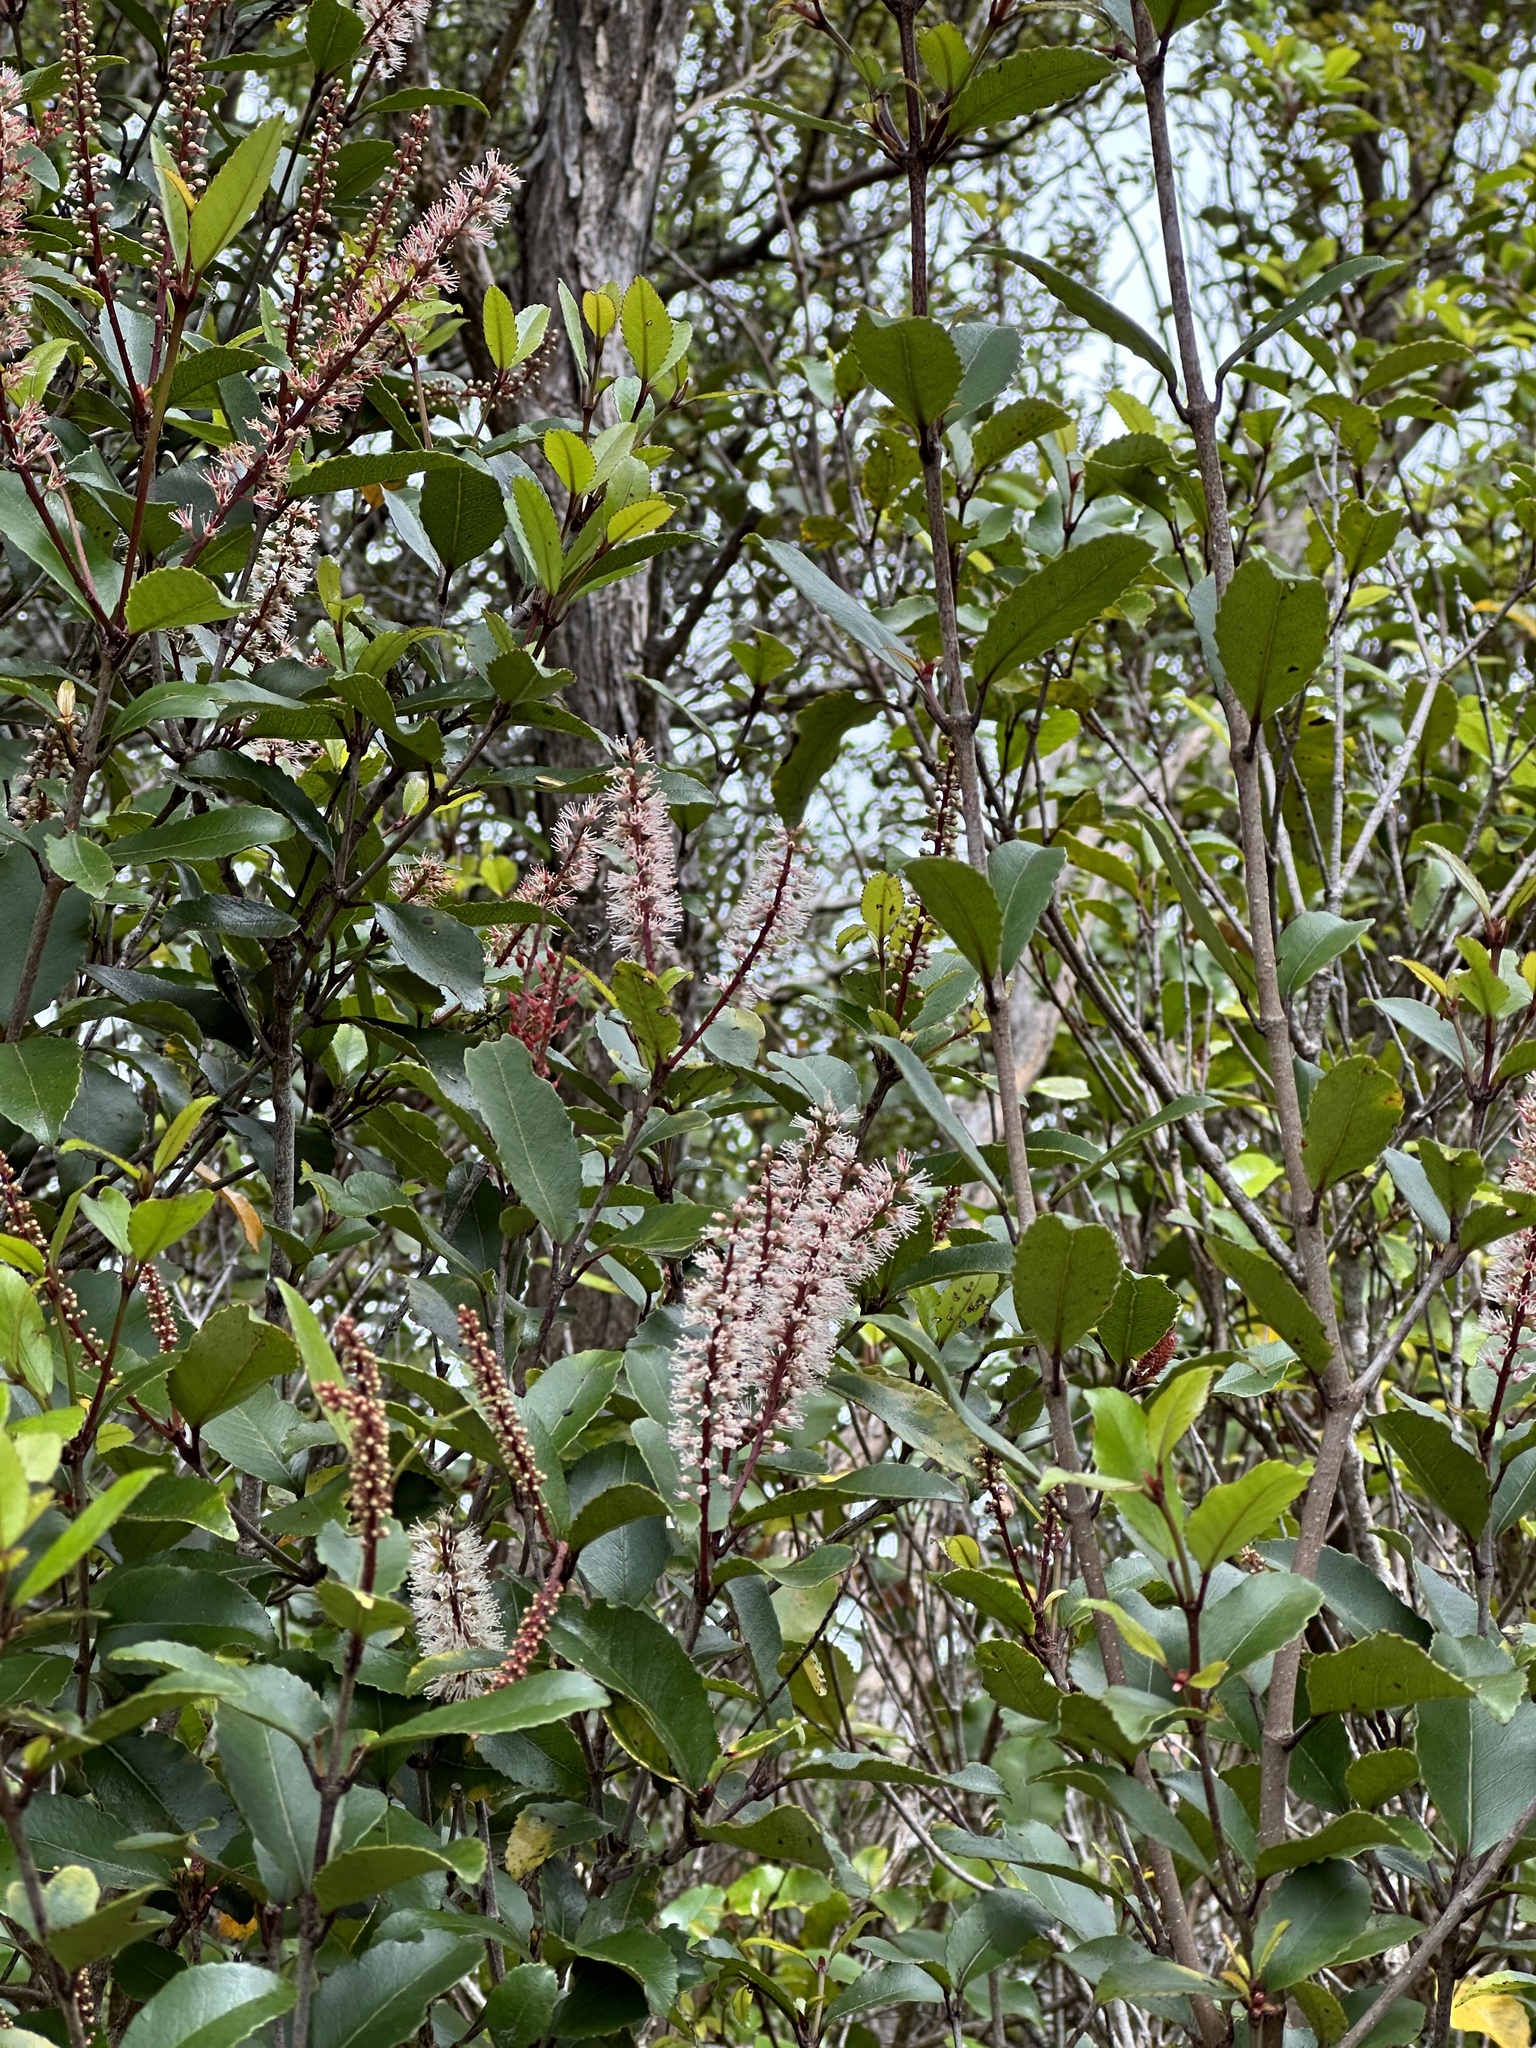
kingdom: Plantae
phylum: Tracheophyta
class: Magnoliopsida
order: Oxalidales
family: Cunoniaceae
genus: Pterophylla
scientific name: Pterophylla racemosa
